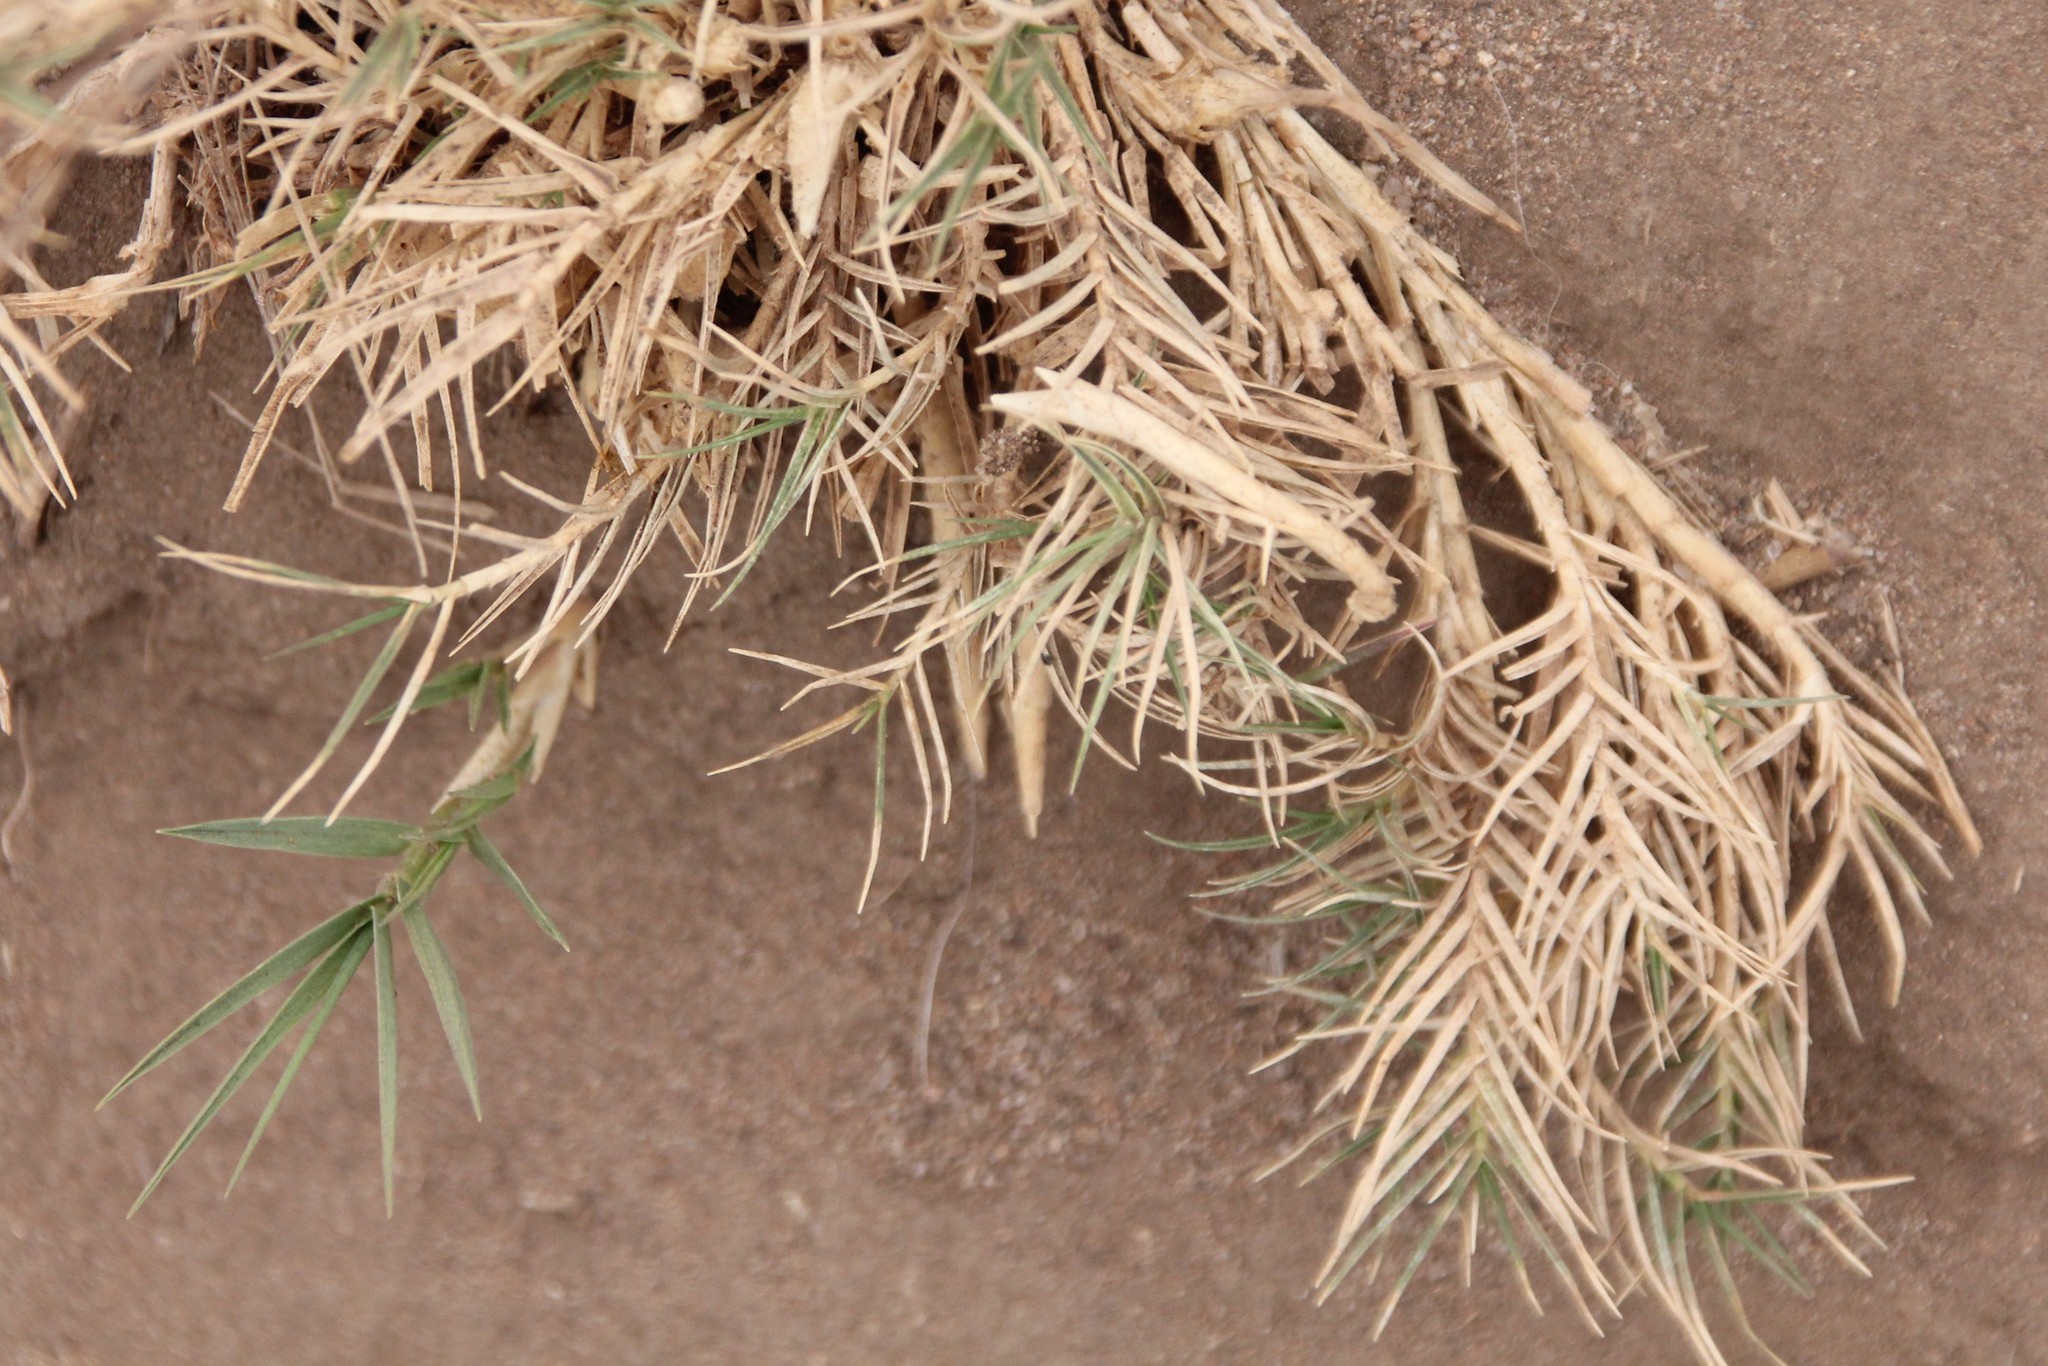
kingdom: Plantae
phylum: Tracheophyta
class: Liliopsida
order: Poales
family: Poaceae
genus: Distichlis
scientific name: Distichlis spicata
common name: Saltgrass
